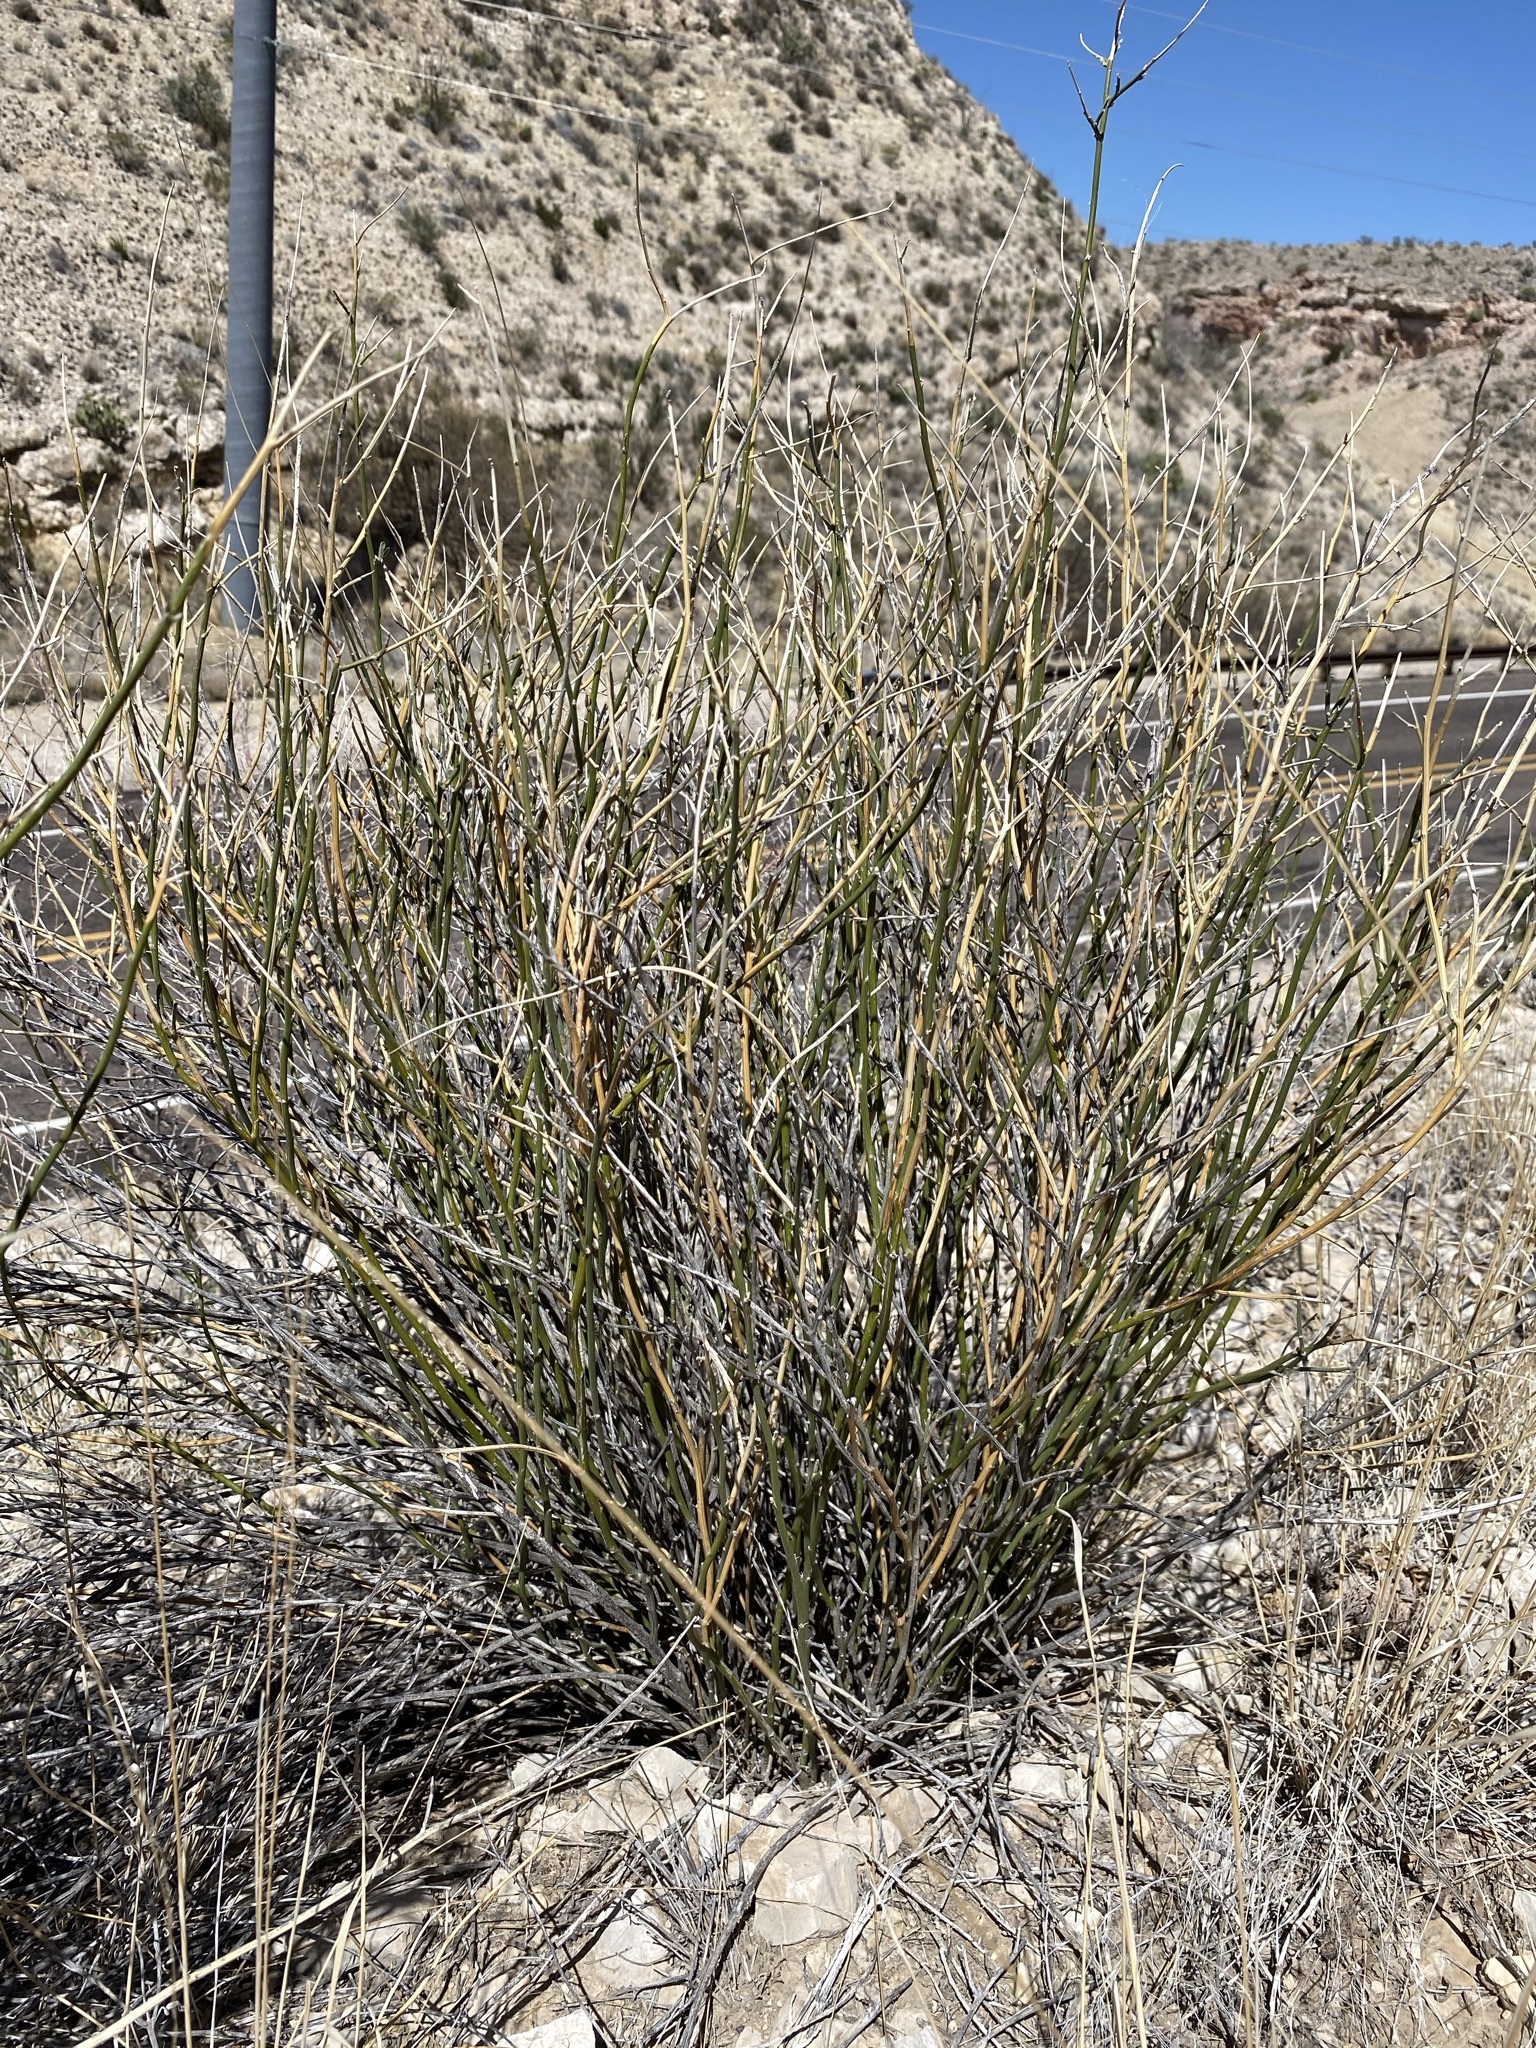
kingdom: Plantae
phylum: Tracheophyta
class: Magnoliopsida
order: Fabales
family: Fabaceae
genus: Genistidium
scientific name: Genistidium dumosum
